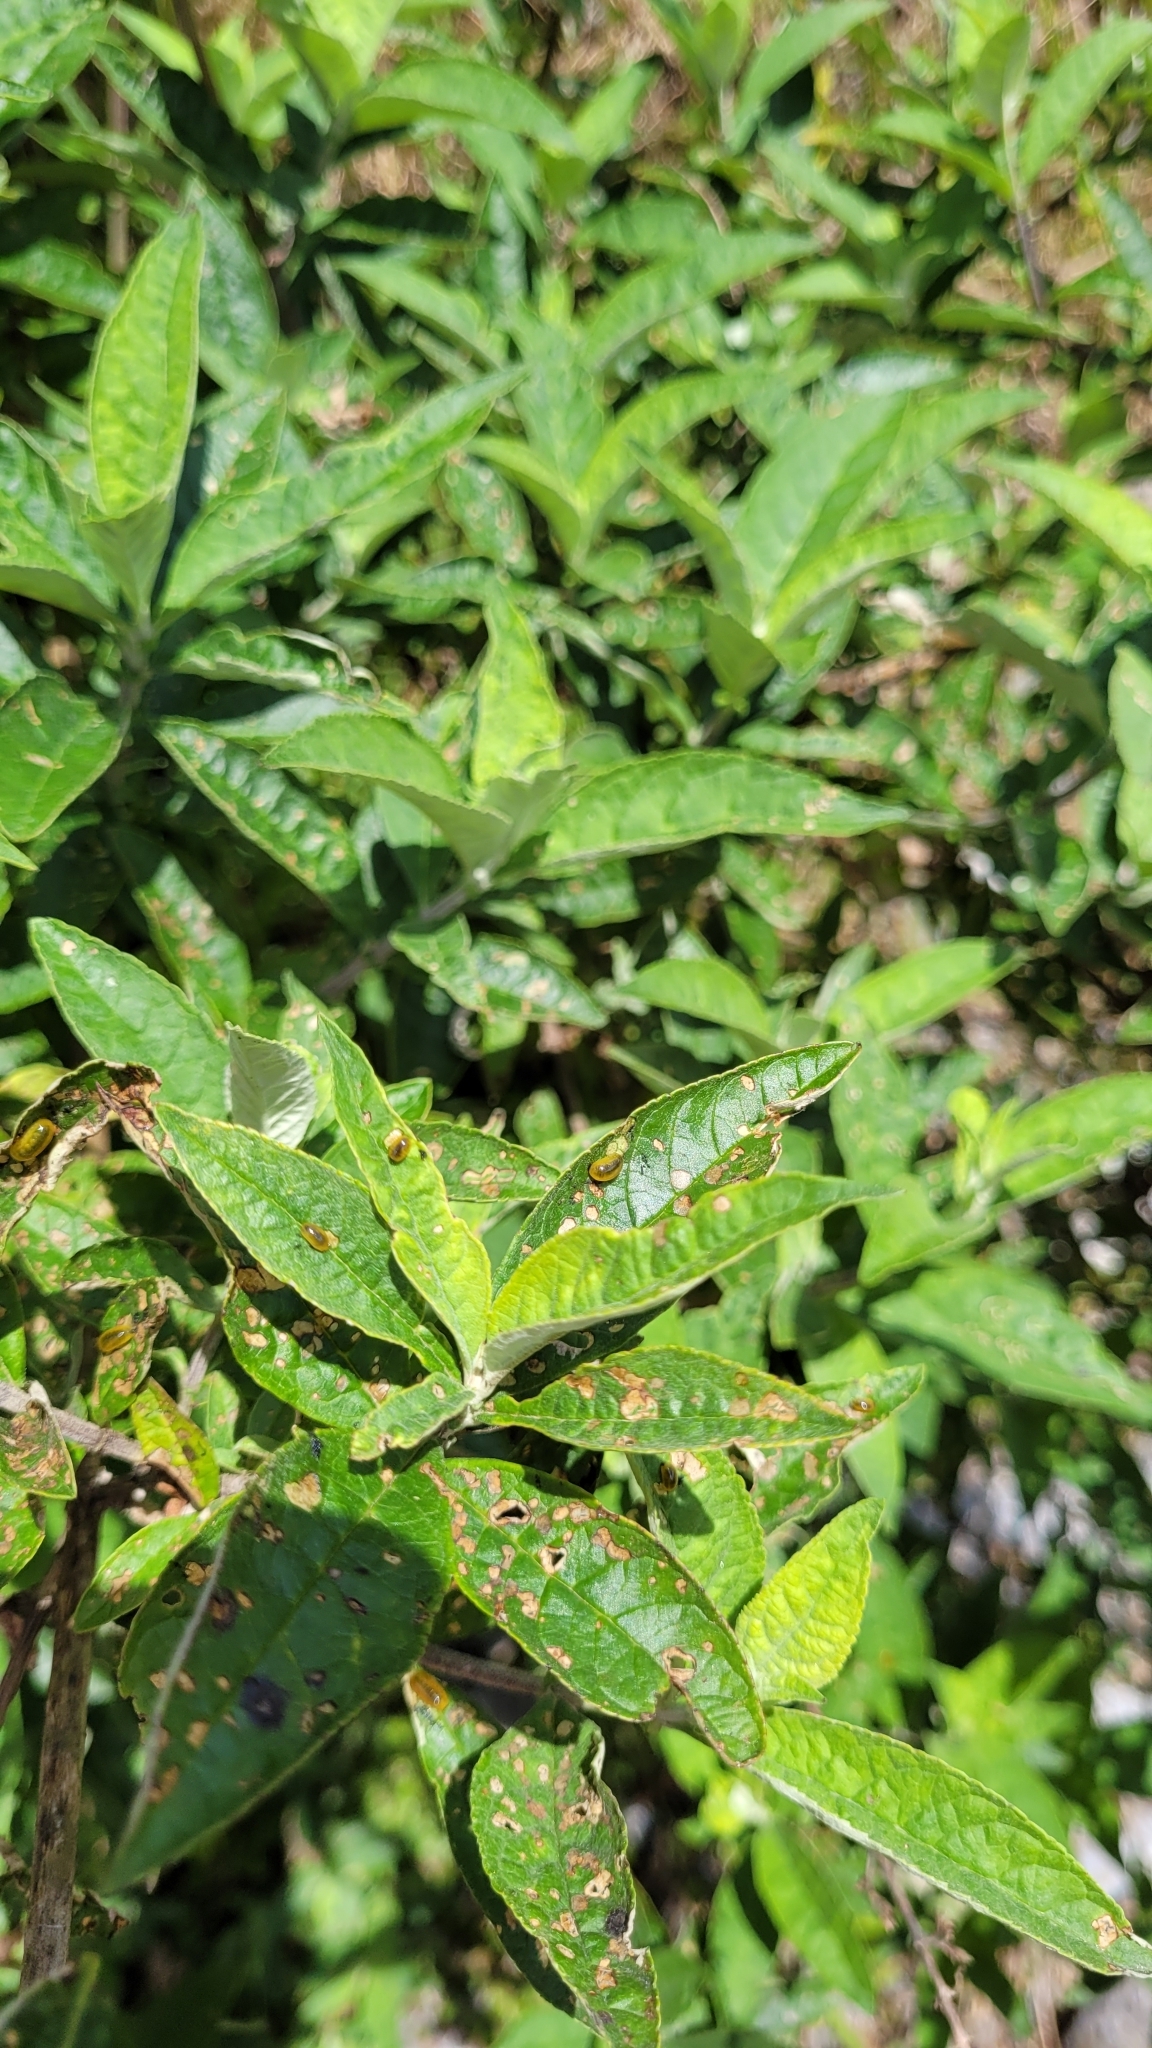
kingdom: Animalia
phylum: Arthropoda
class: Insecta
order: Coleoptera
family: Curculionidae
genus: Cleopus
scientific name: Cleopus japonicus
